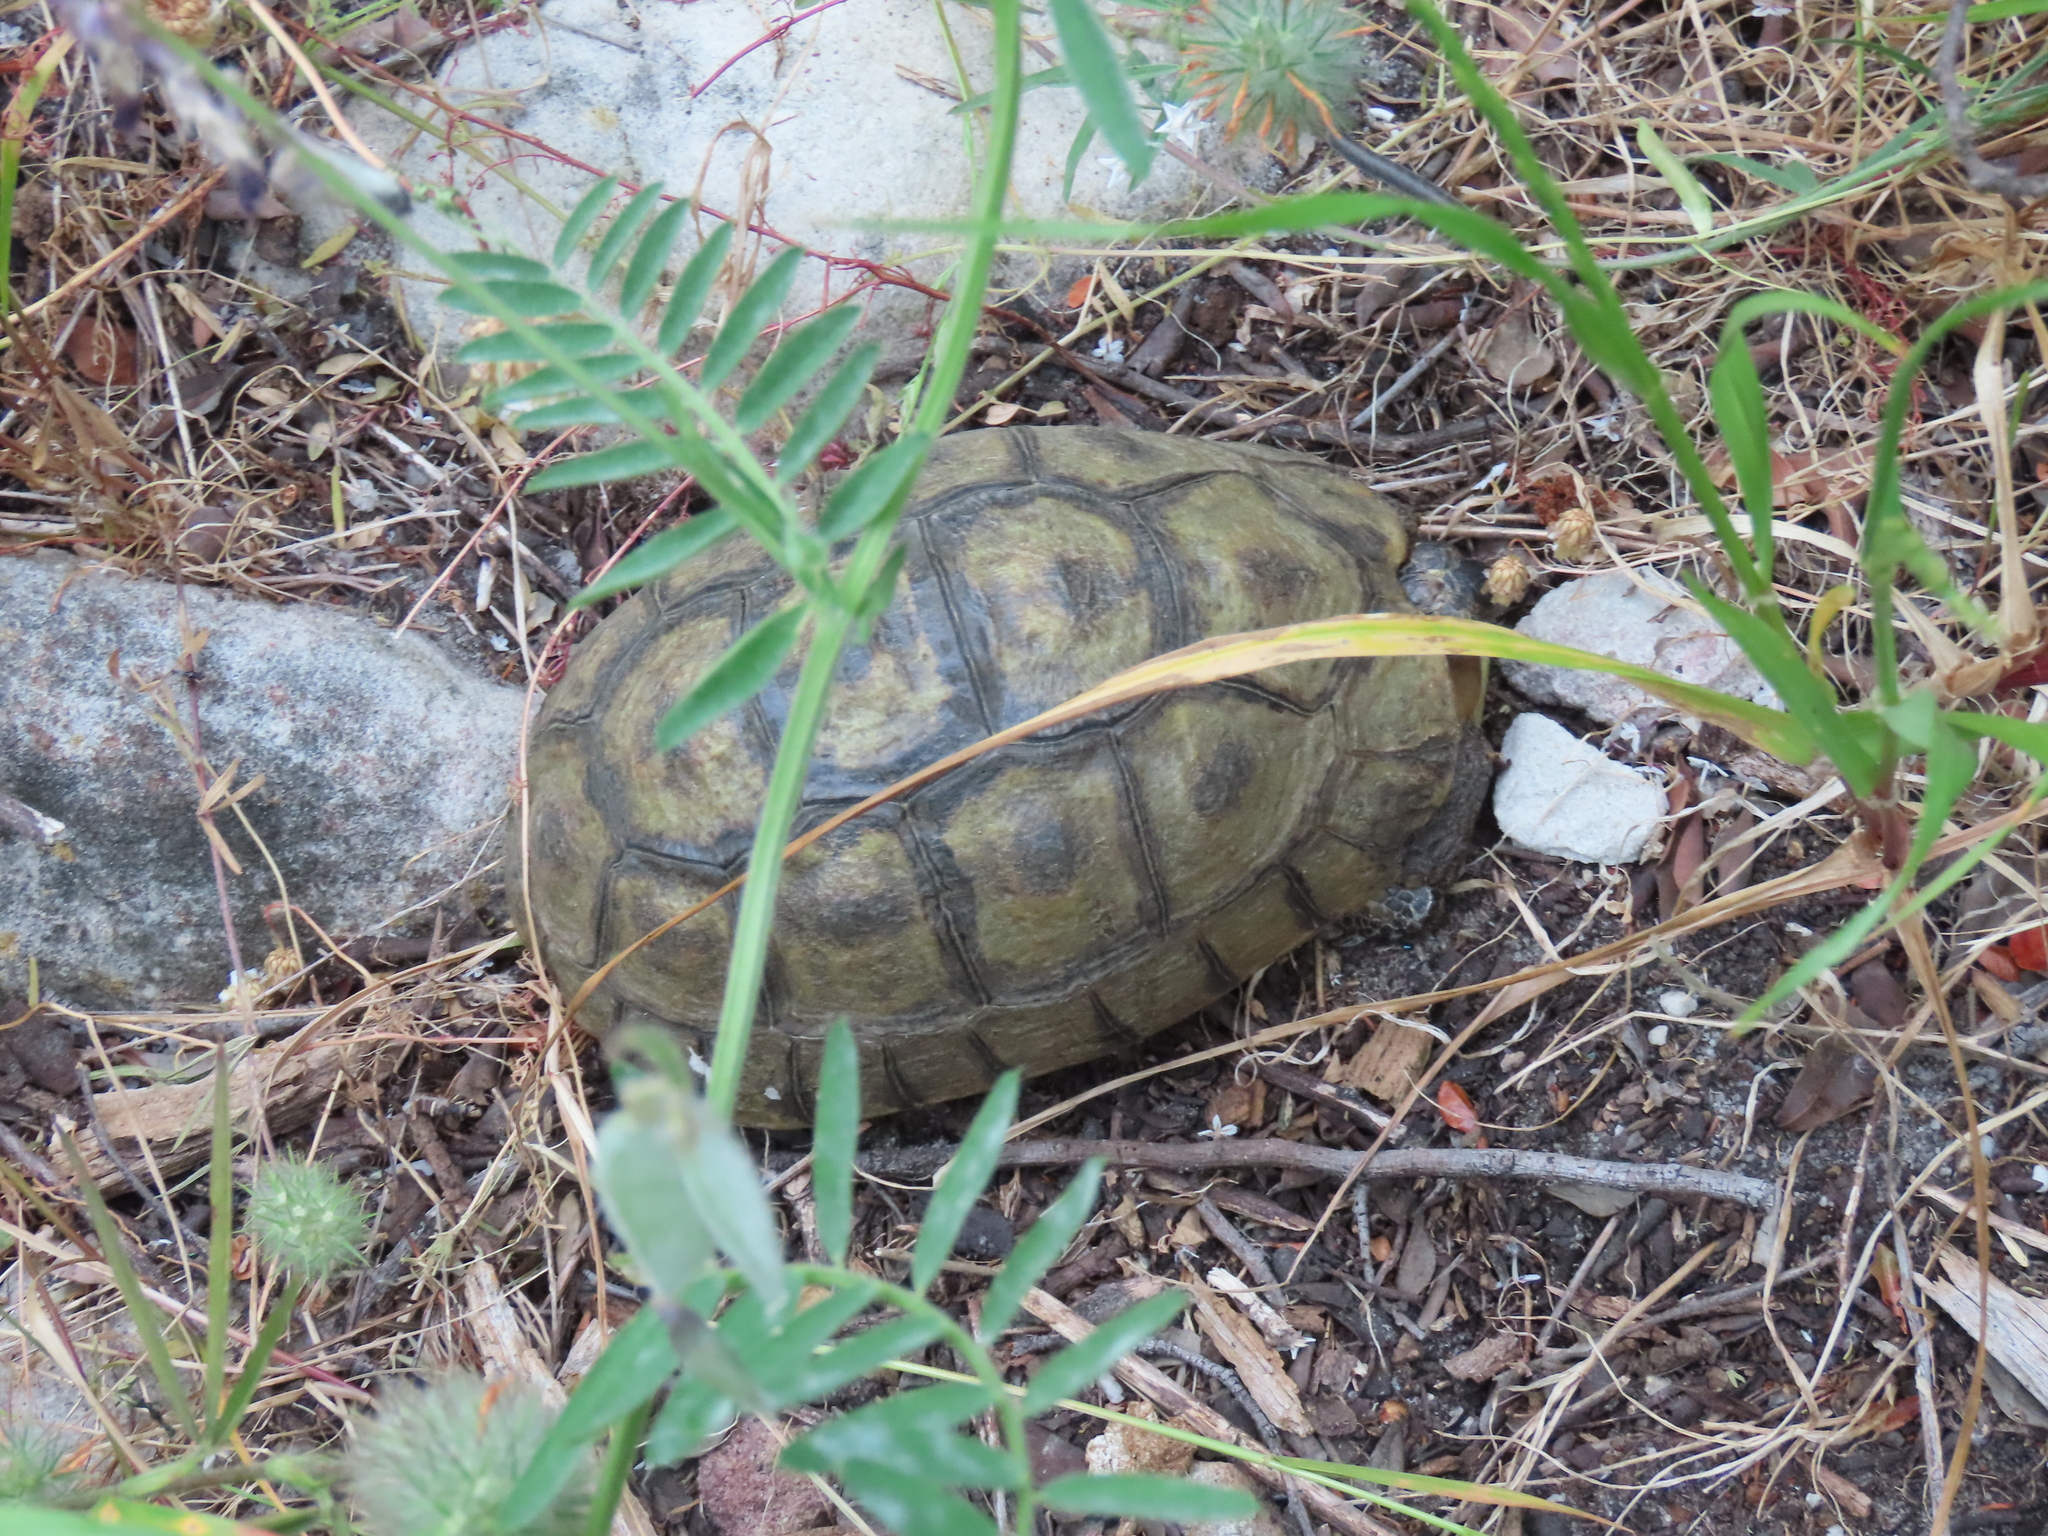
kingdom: Animalia
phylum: Chordata
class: Testudines
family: Testudinidae
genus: Chersina
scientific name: Chersina angulata
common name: South african bowsprit tortoise
